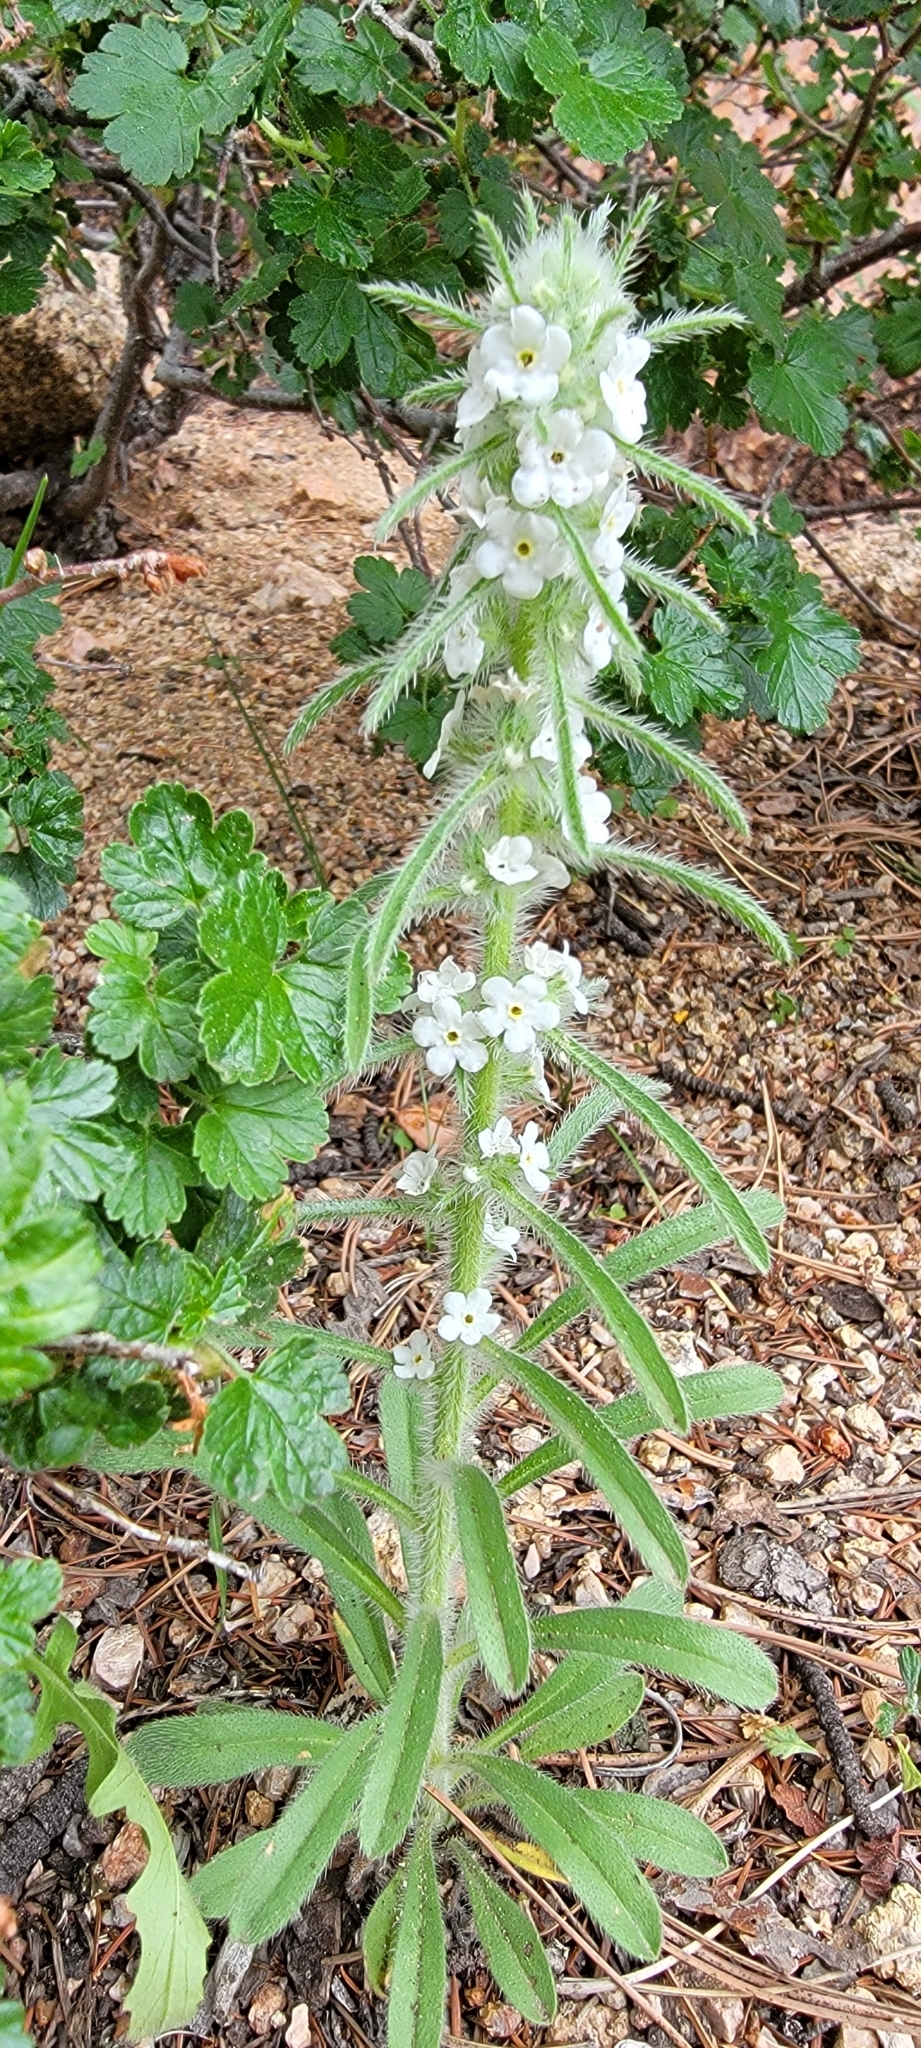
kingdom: Plantae
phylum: Tracheophyta
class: Magnoliopsida
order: Boraginales
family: Boraginaceae
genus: Oreocarya
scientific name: Oreocarya virgata
